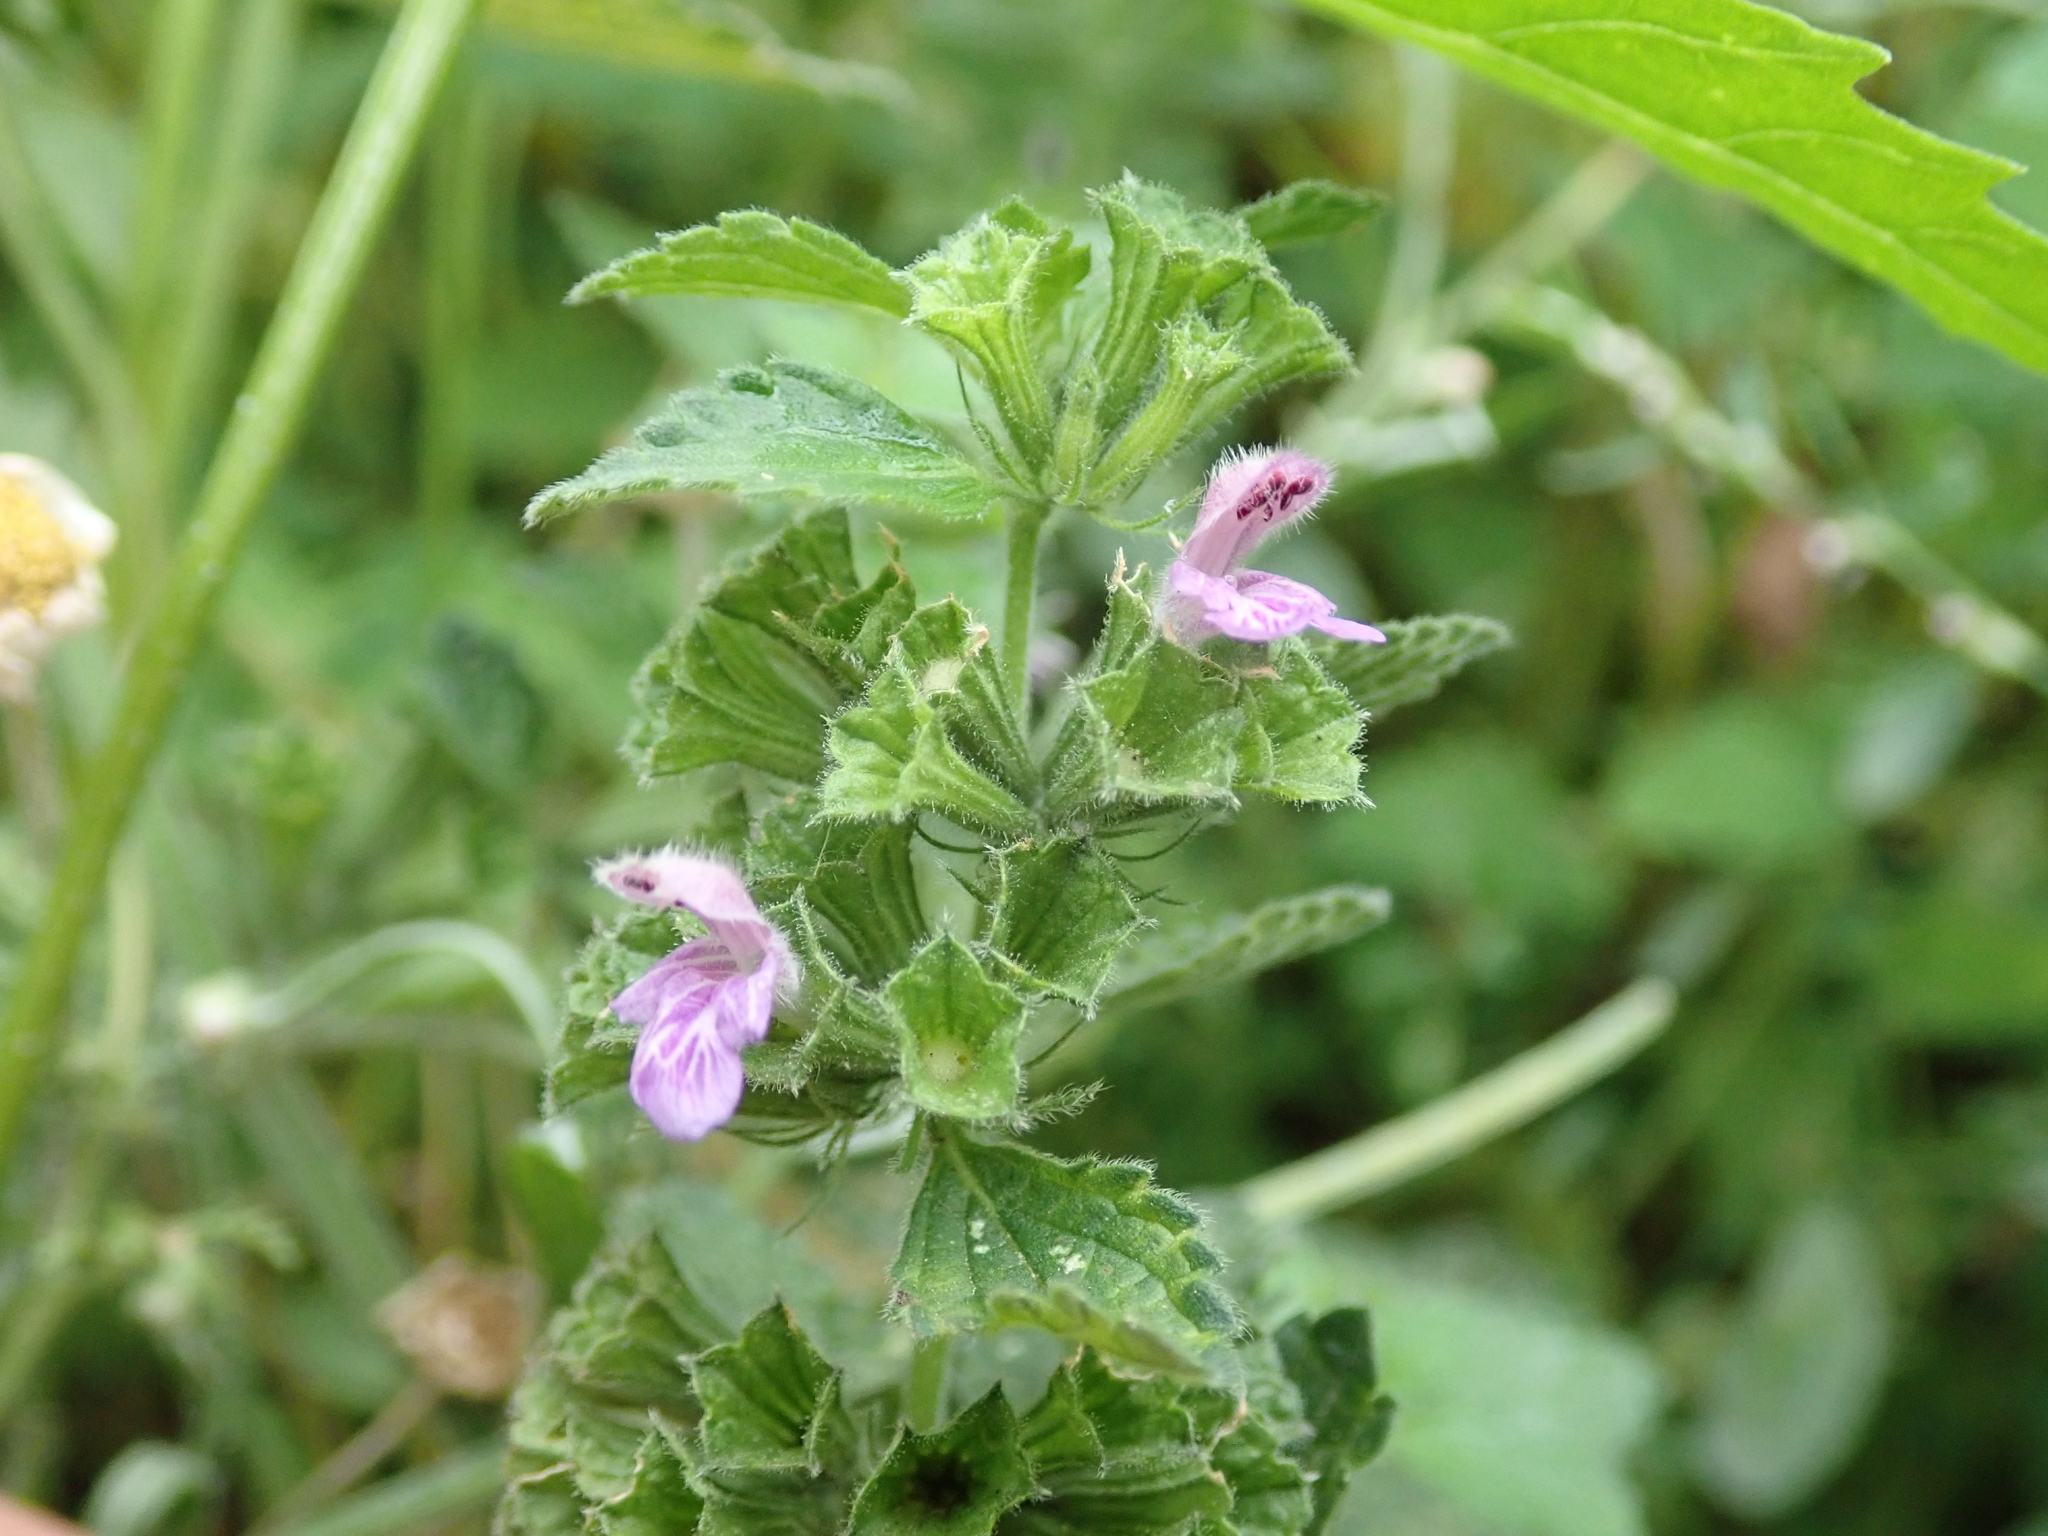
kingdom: Plantae
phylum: Tracheophyta
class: Magnoliopsida
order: Lamiales
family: Lamiaceae
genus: Ballota
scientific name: Ballota nigra
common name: Black horehound
